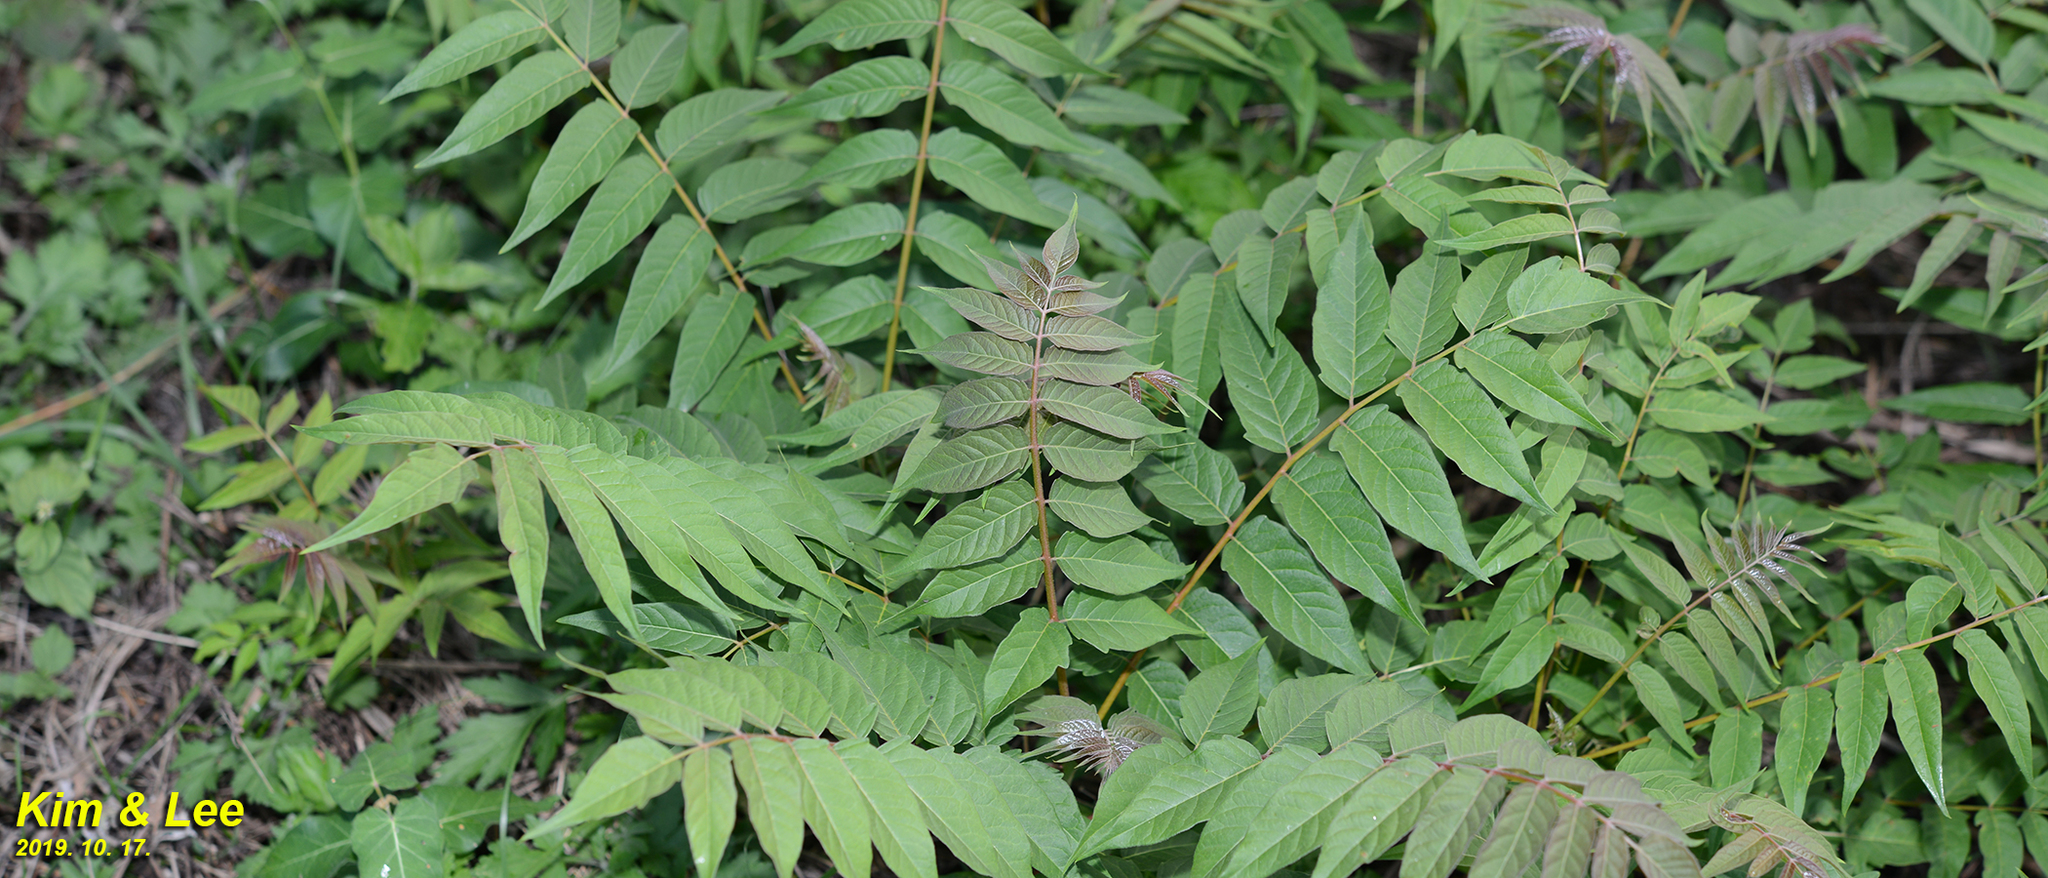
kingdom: Plantae
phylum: Tracheophyta
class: Magnoliopsida
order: Sapindales
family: Simaroubaceae
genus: Ailanthus
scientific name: Ailanthus altissima
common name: Tree-of-heaven
